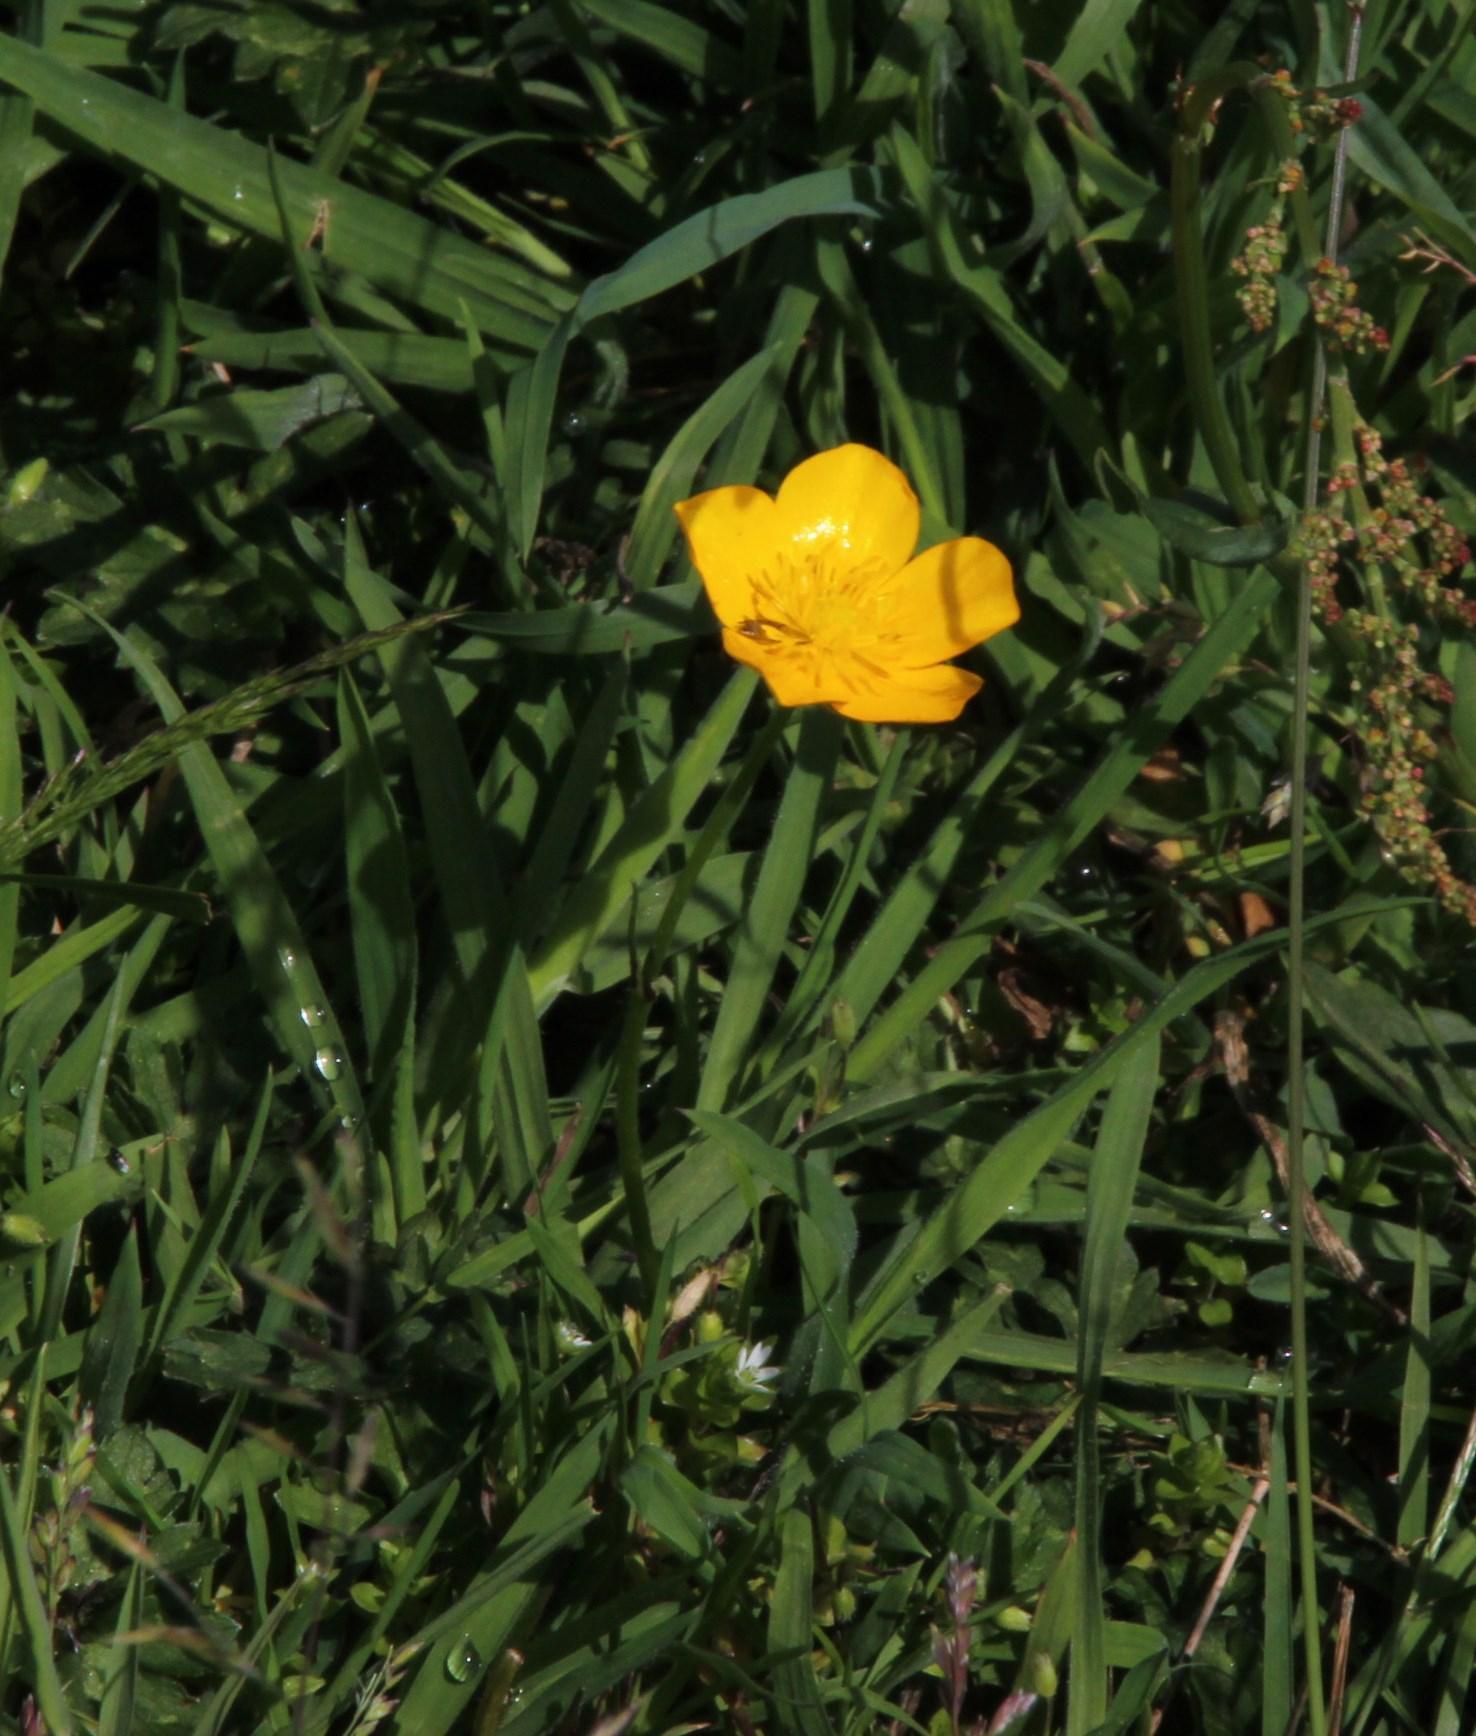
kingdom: Plantae
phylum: Tracheophyta
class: Magnoliopsida
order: Ranunculales
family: Ranunculaceae
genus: Ranunculus
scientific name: Ranunculus
